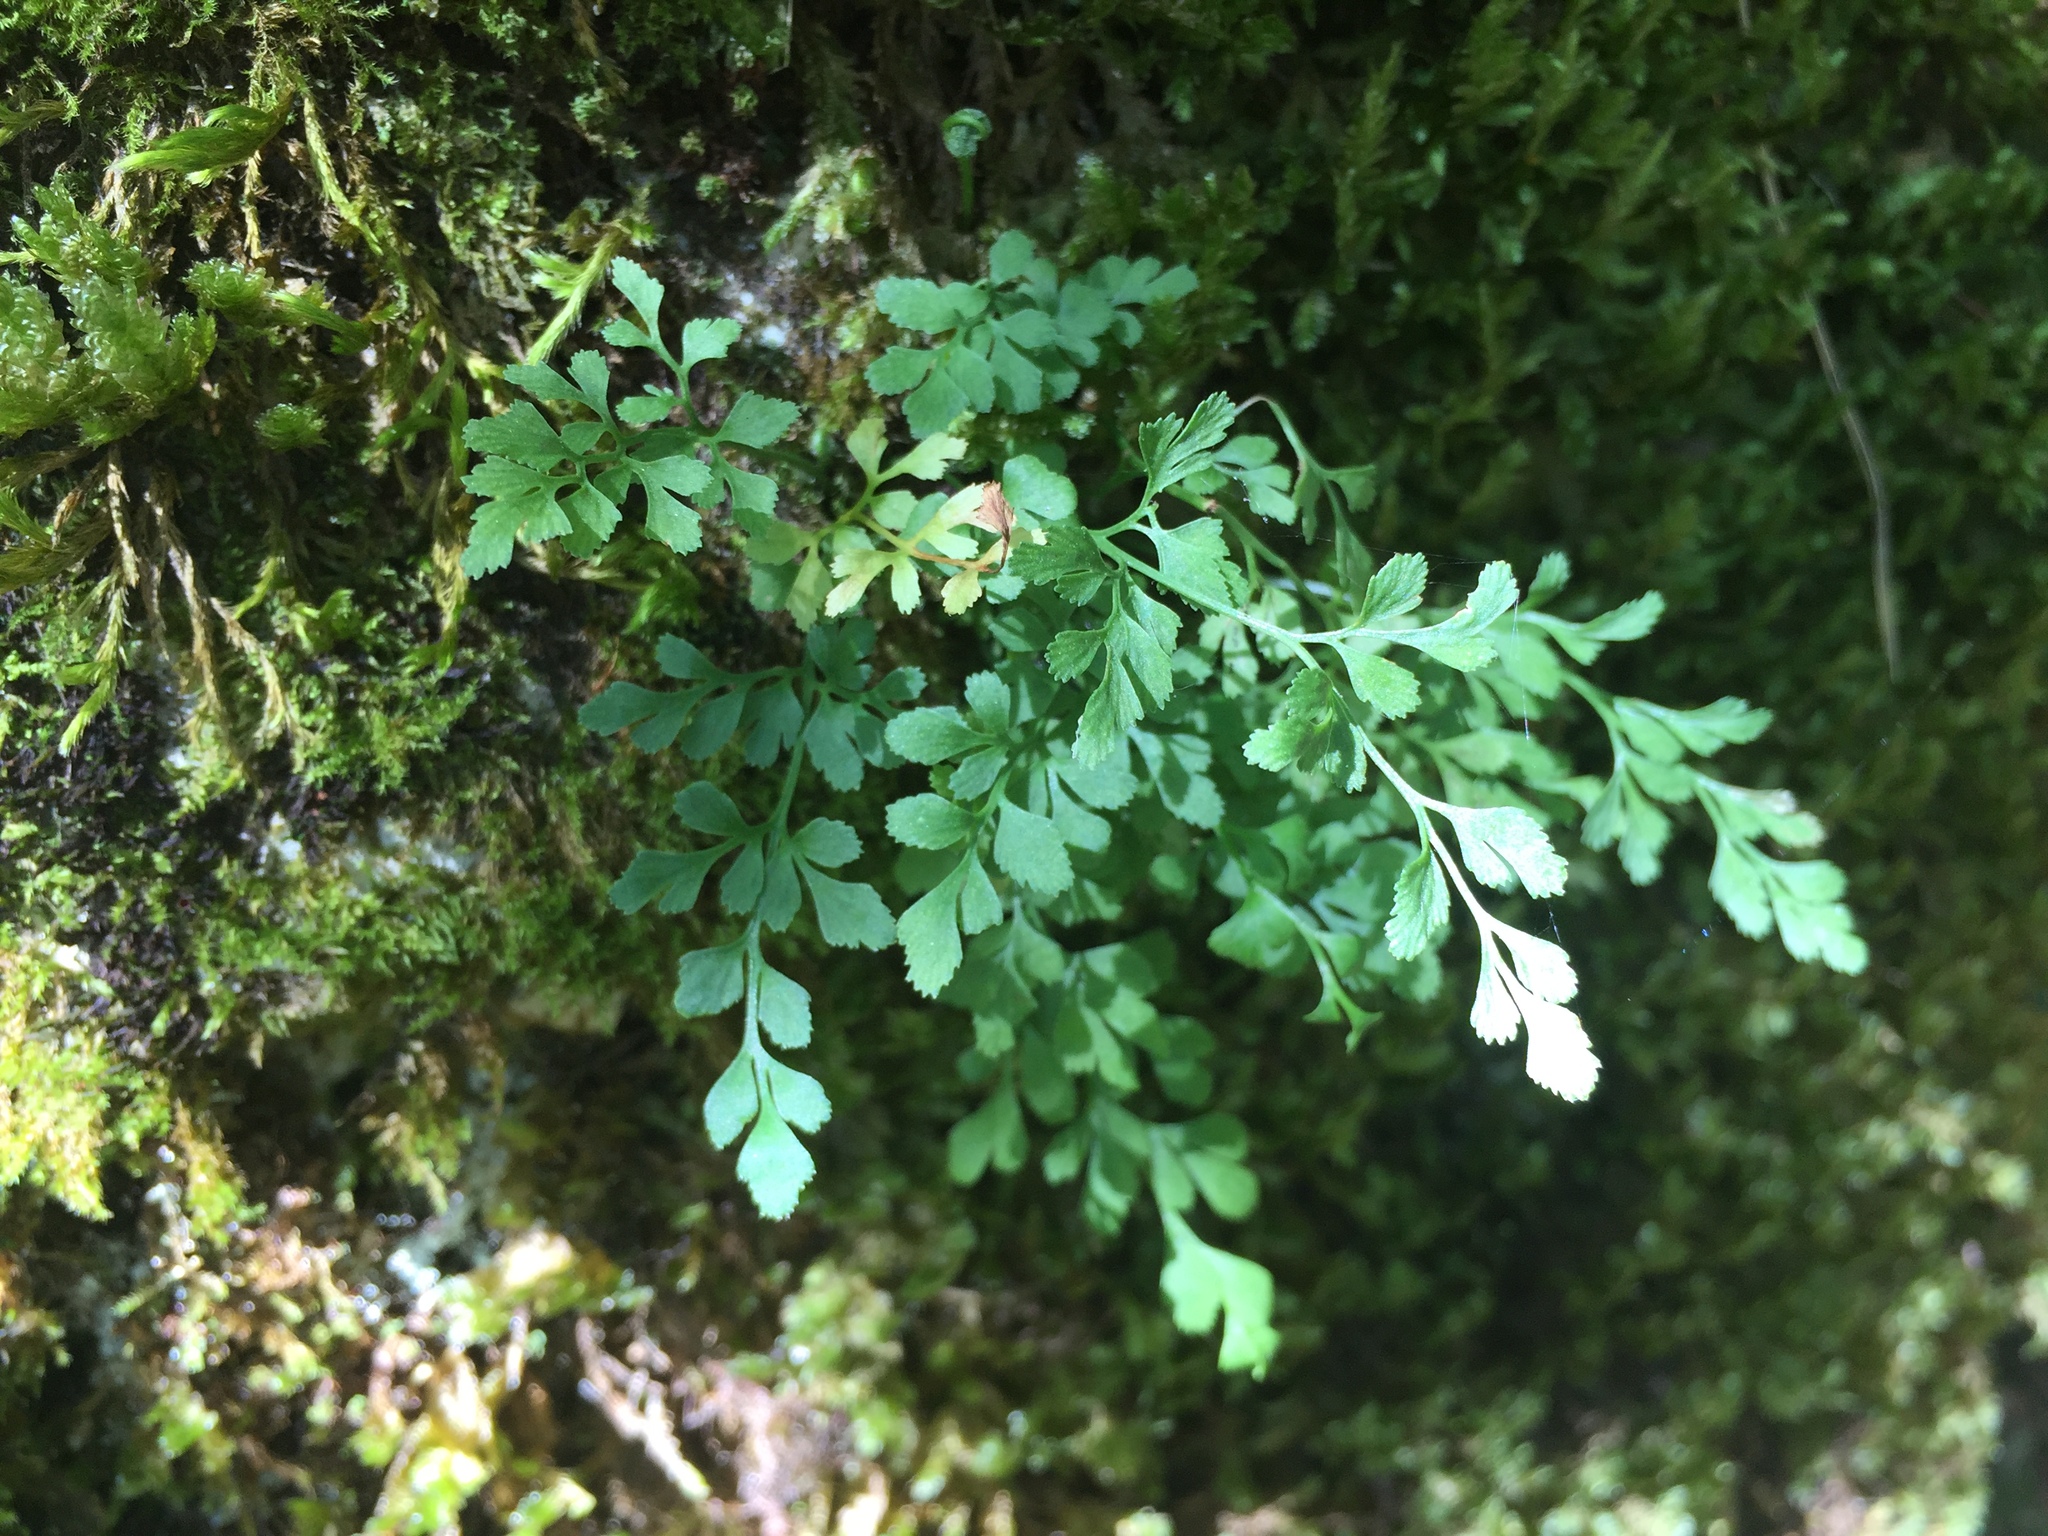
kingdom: Plantae
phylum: Tracheophyta
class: Polypodiopsida
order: Polypodiales
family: Aspleniaceae
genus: Asplenium
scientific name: Asplenium ruta-muraria
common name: Wall-rue
